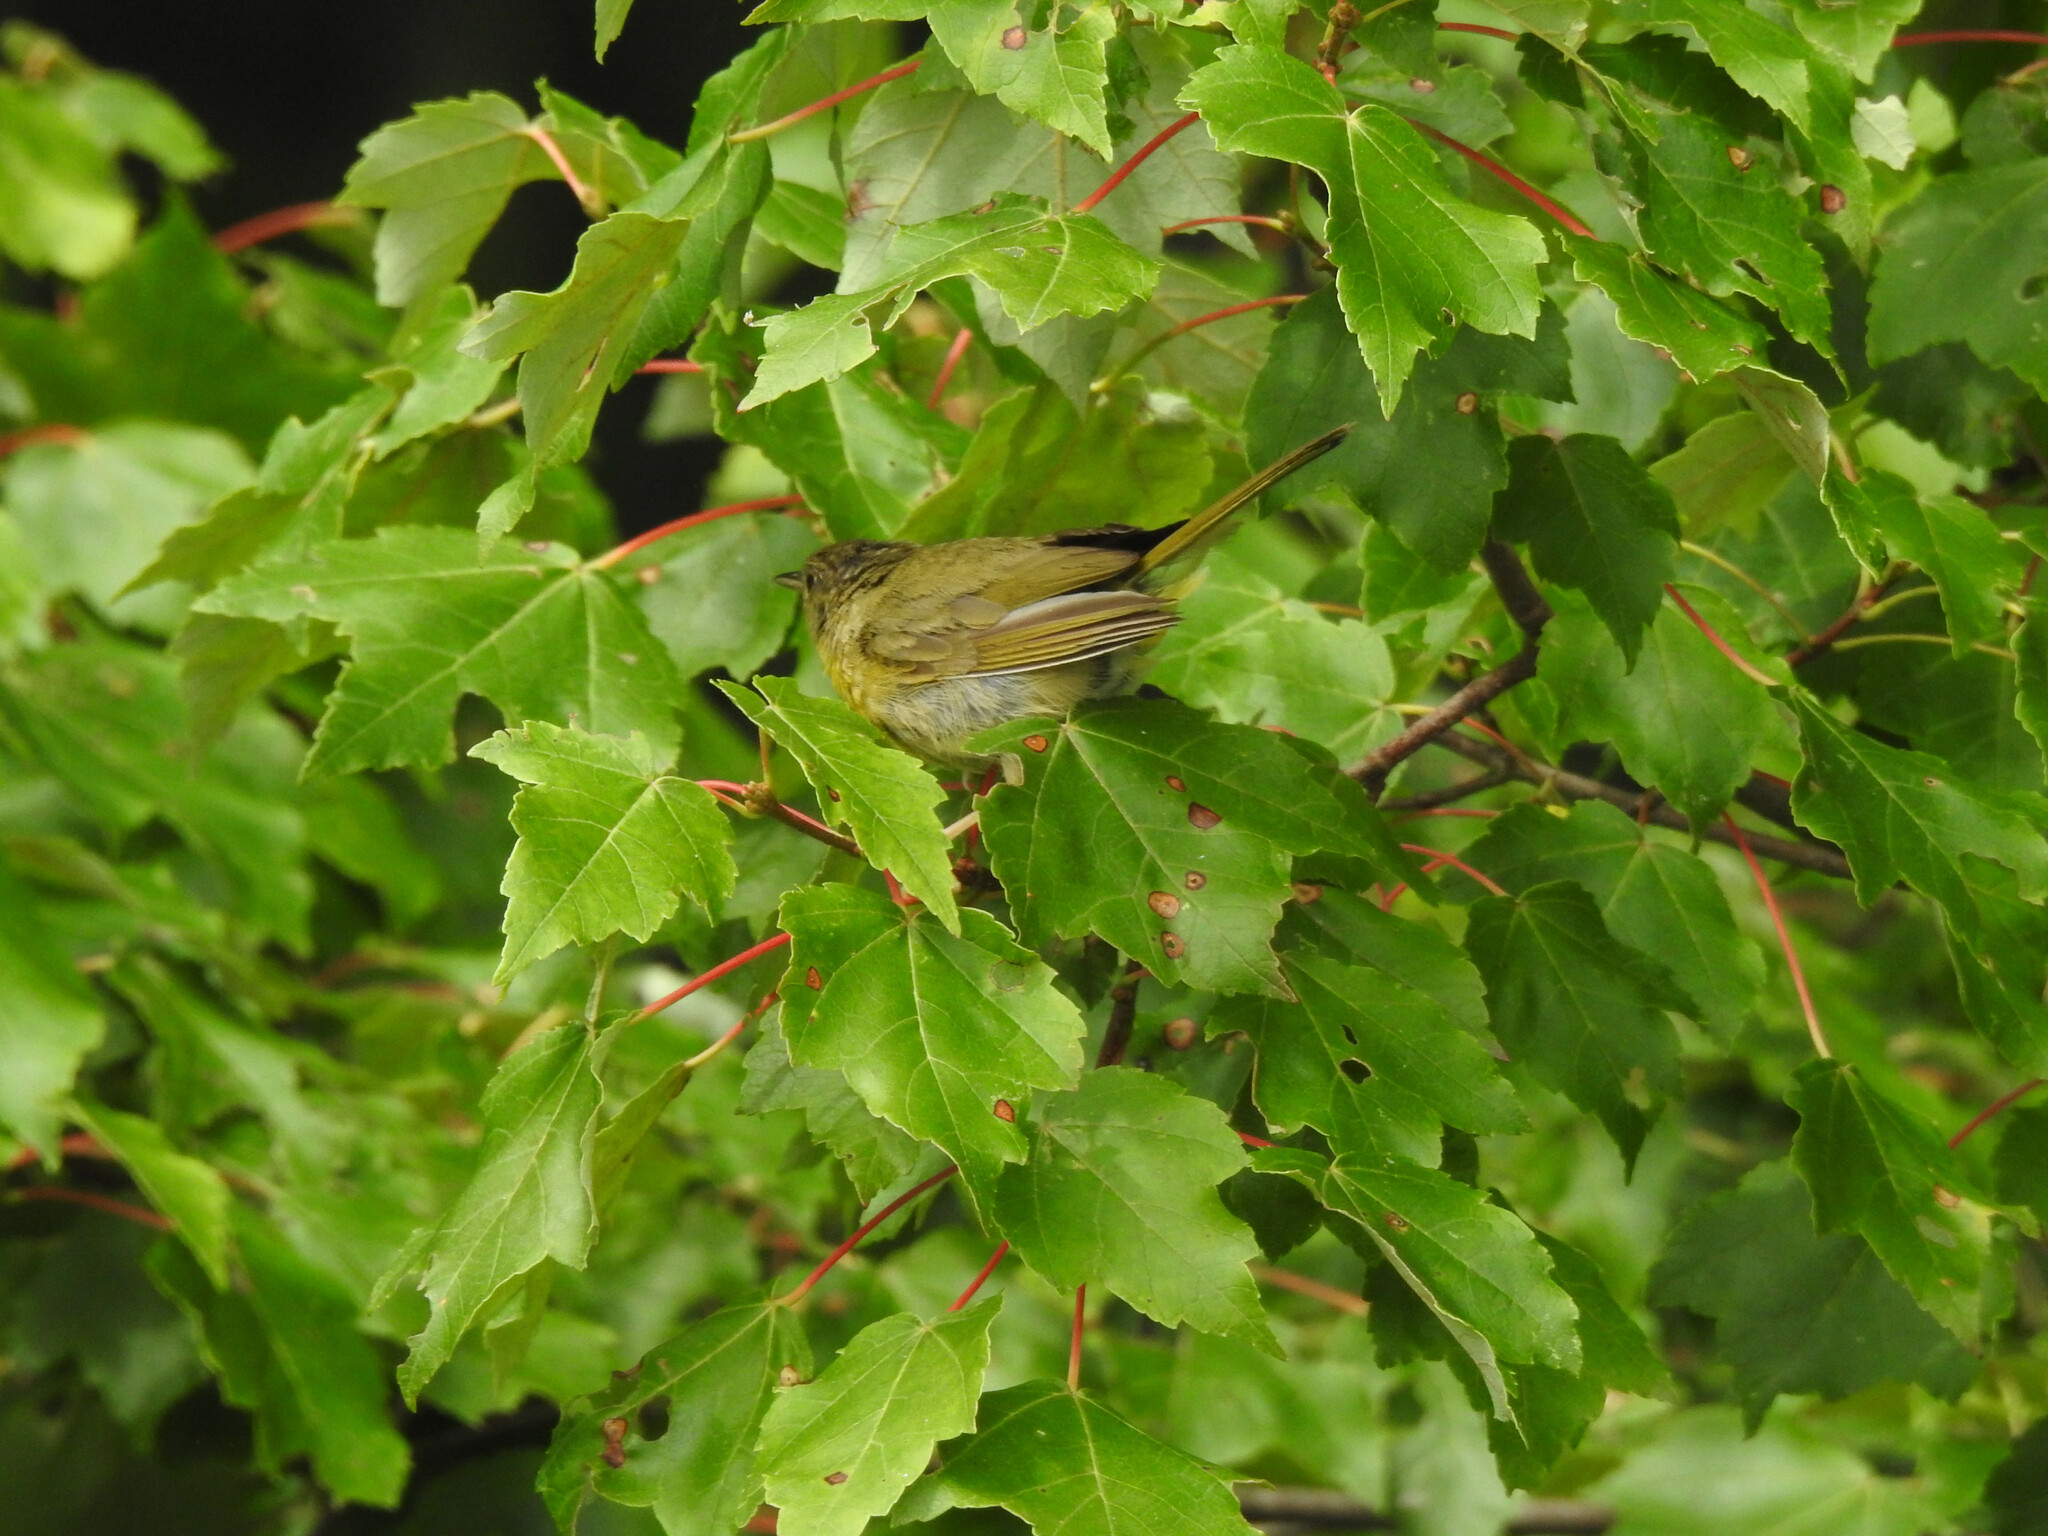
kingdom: Animalia
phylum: Chordata
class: Aves
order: Passeriformes
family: Parulidae
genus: Geothlypis
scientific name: Geothlypis trichas
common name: Common yellowthroat
